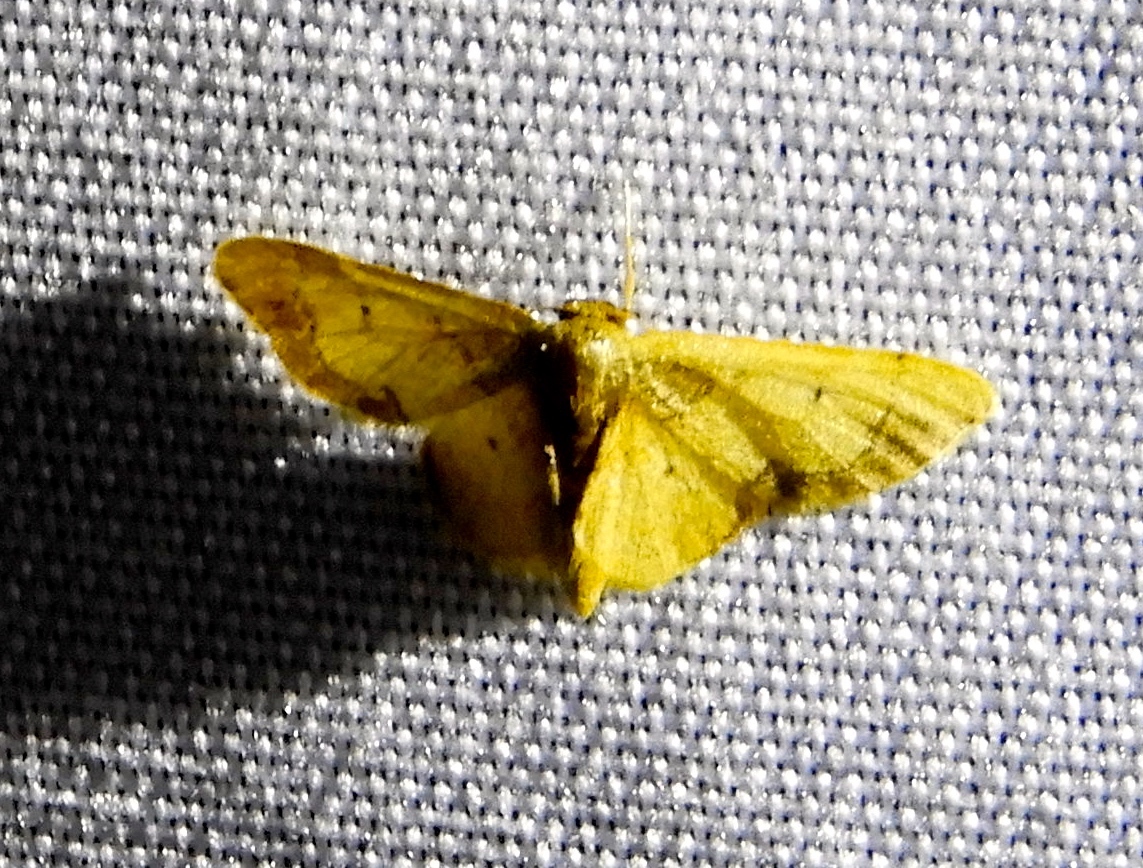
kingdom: Animalia
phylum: Arthropoda
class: Insecta
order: Lepidoptera
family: Geometridae
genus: Idaea
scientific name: Idaea
